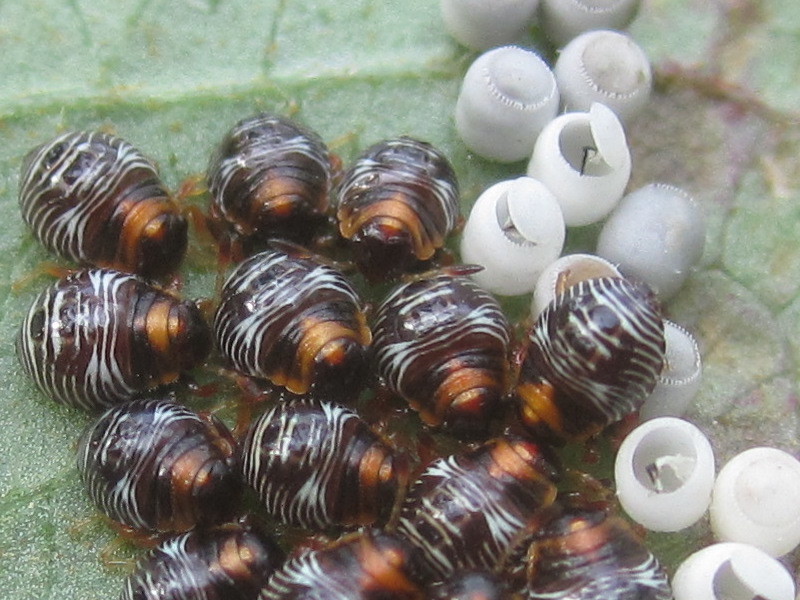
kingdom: Animalia
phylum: Arthropoda
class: Insecta
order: Hemiptera
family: Pentatomidae
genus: Chinavia
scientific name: Chinavia hilaris
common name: Green stink bug
